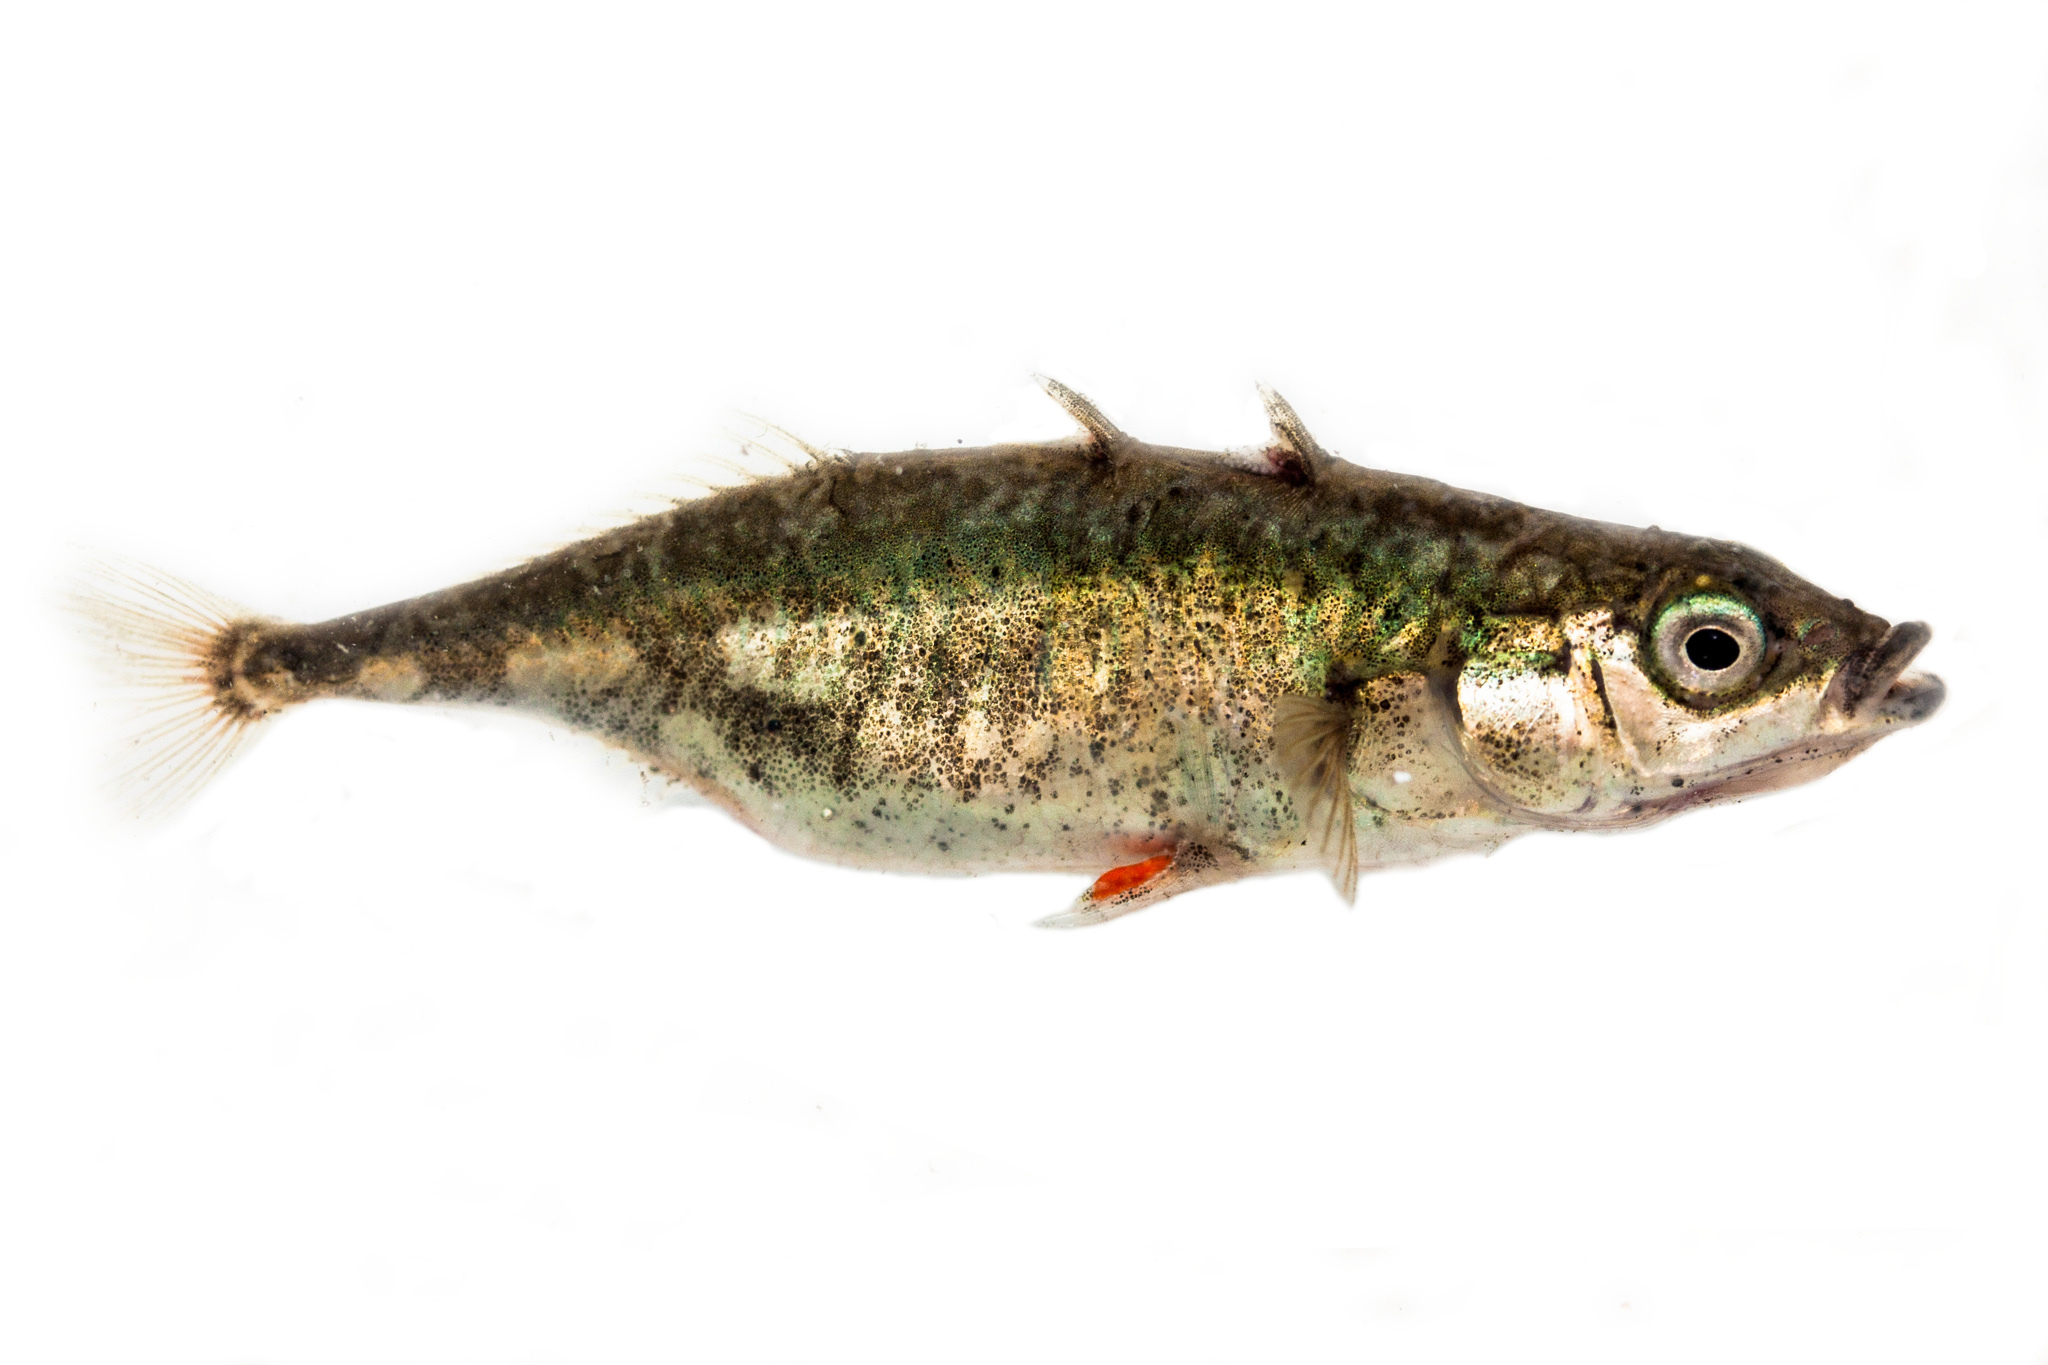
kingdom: Animalia
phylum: Chordata
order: Gasterosteiformes
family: Gasterosteidae
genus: Gasterosteus
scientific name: Gasterosteus aculeatus
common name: Three-spined stickleback
